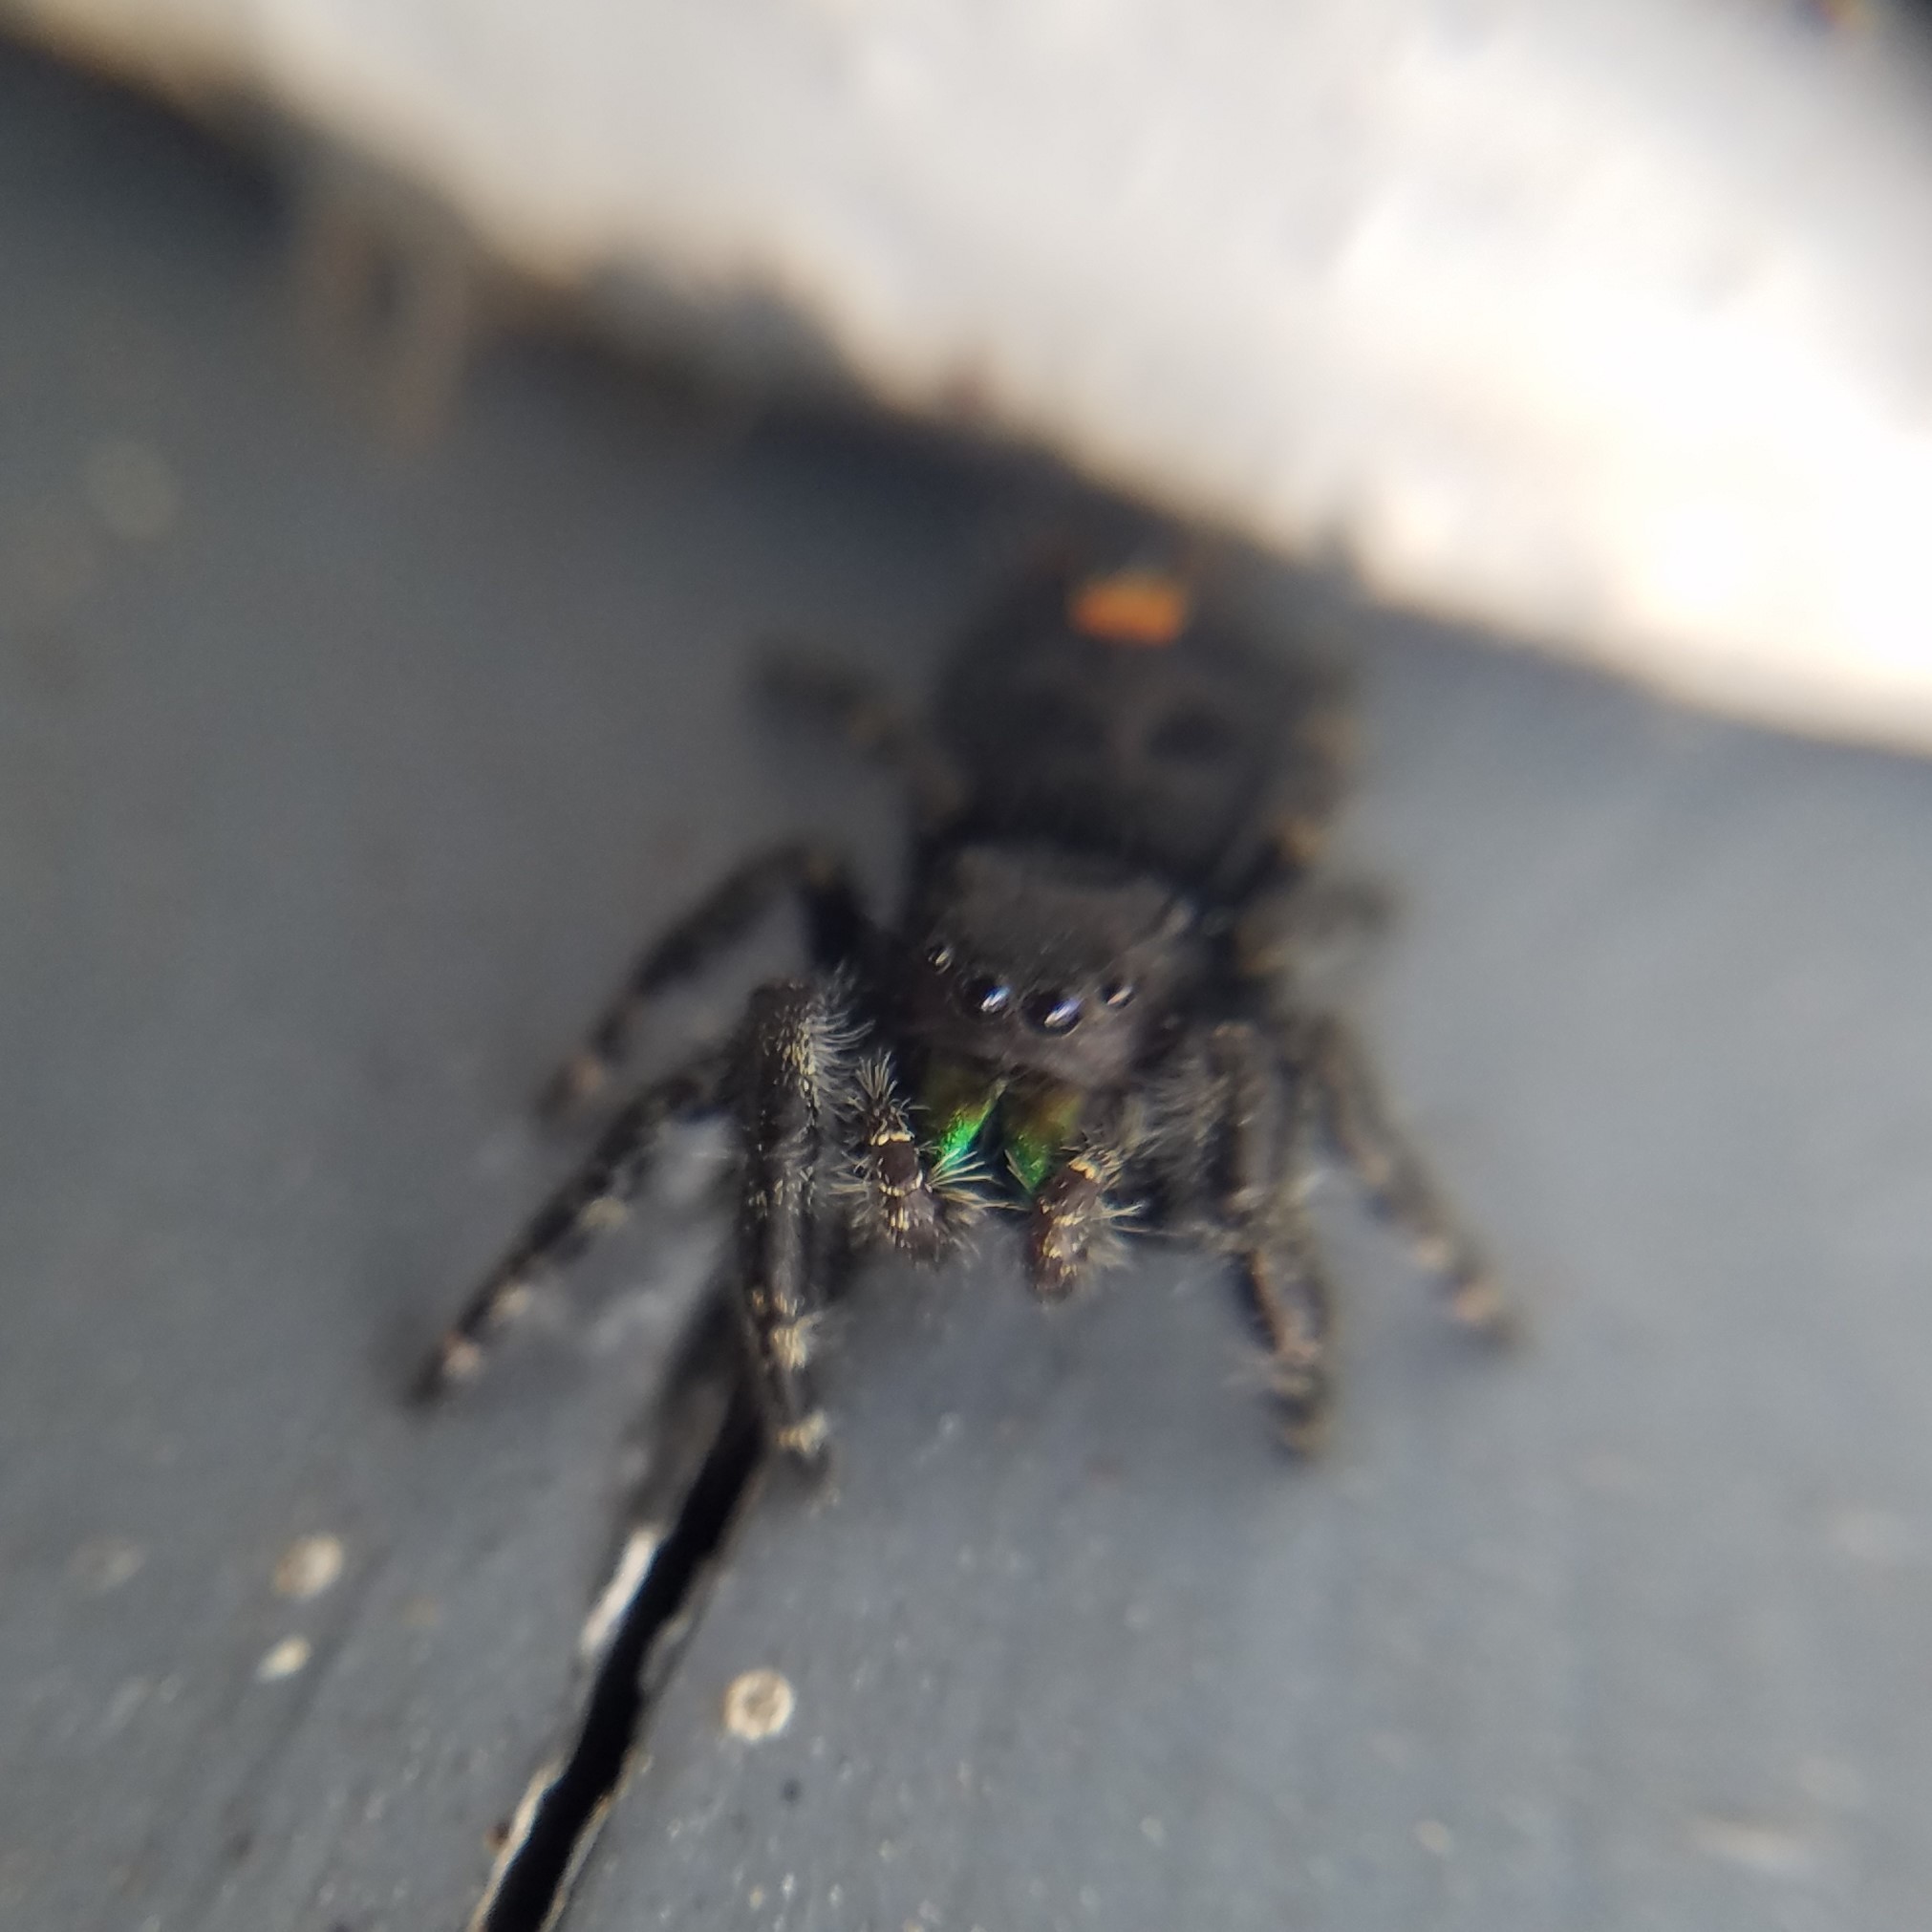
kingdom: Animalia
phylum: Arthropoda
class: Arachnida
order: Araneae
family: Salticidae
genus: Phidippus
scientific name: Phidippus audax
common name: Bold jumper
